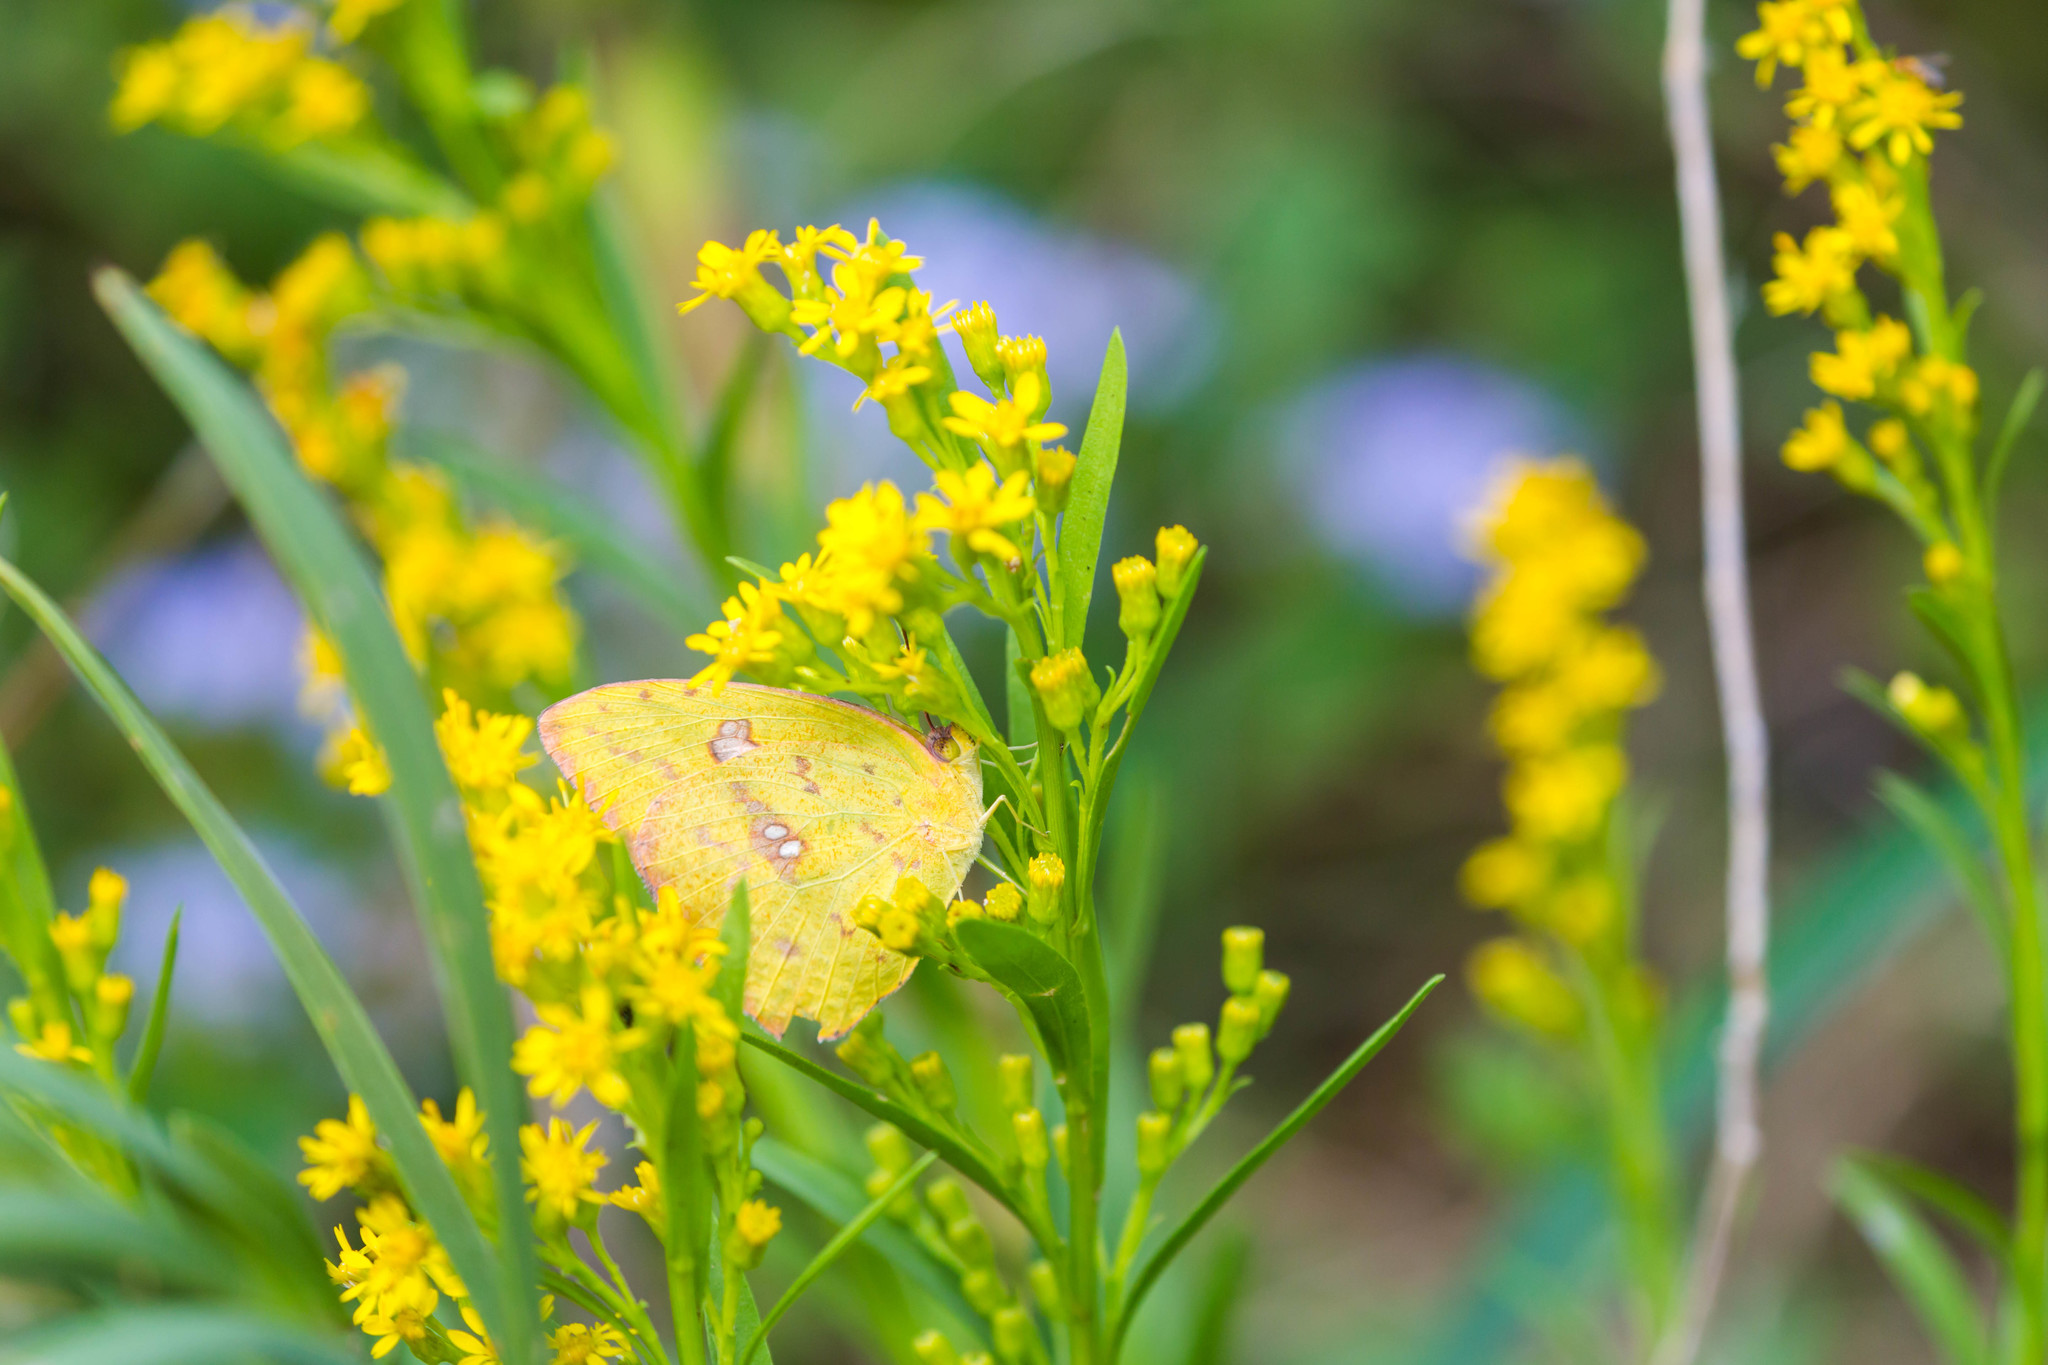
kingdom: Animalia
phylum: Arthropoda
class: Insecta
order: Lepidoptera
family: Pieridae
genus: Phoebis
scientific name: Phoebis sennae
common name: Cloudless sulphur
